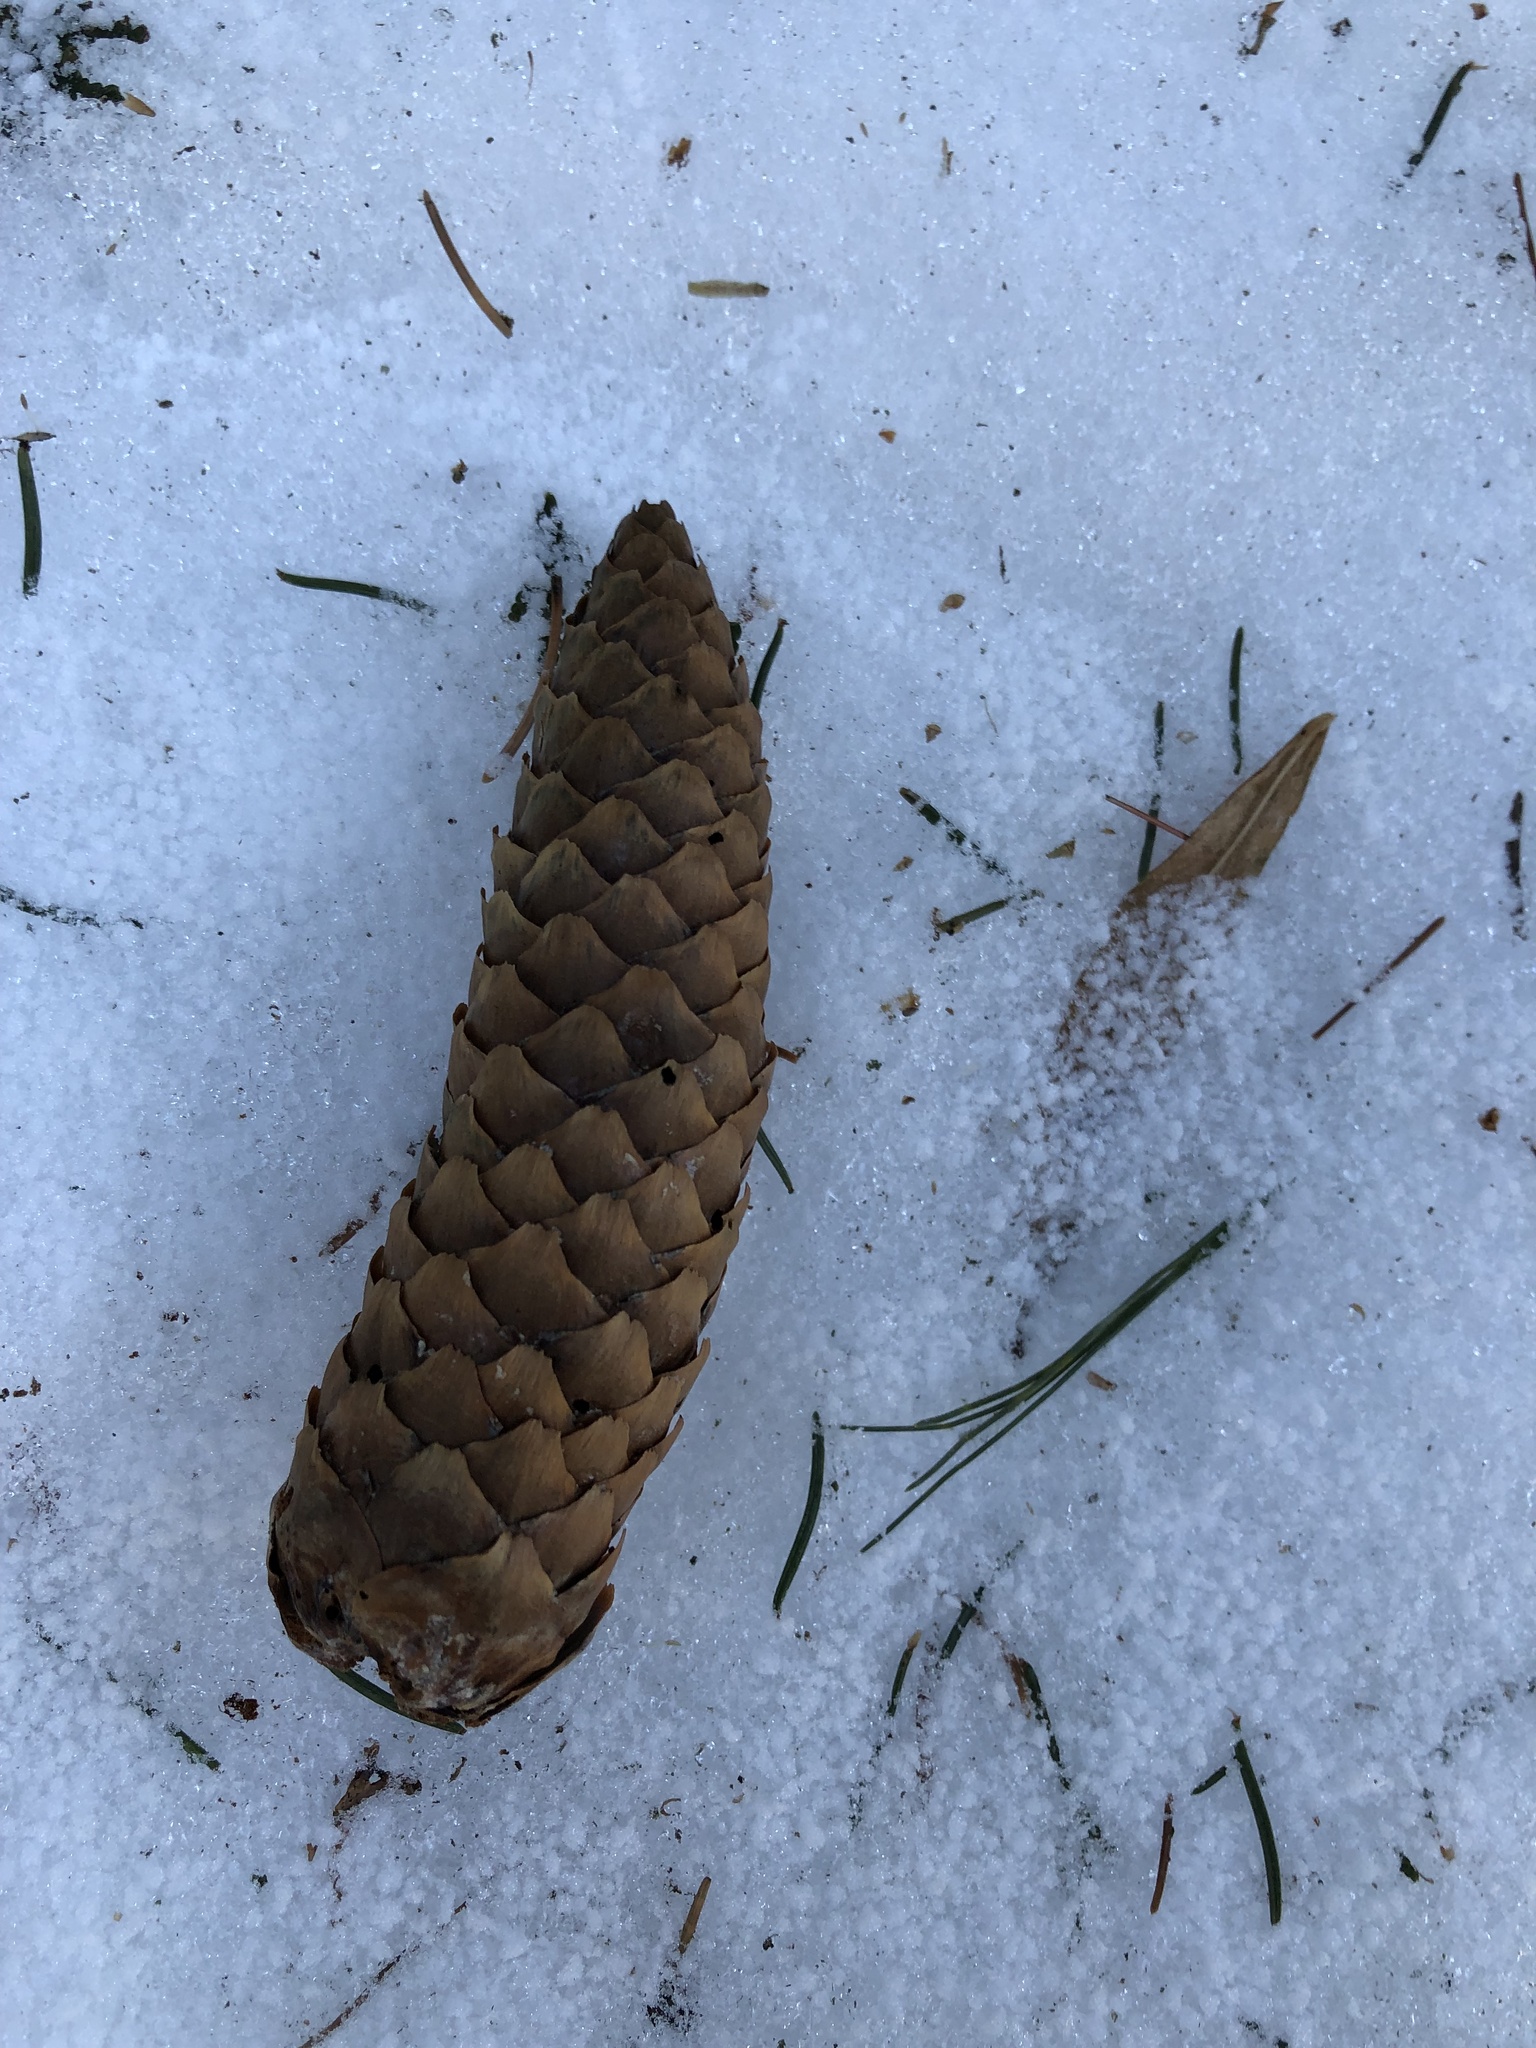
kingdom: Plantae
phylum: Tracheophyta
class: Pinopsida
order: Pinales
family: Pinaceae
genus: Picea
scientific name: Picea abies
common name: Norway spruce
